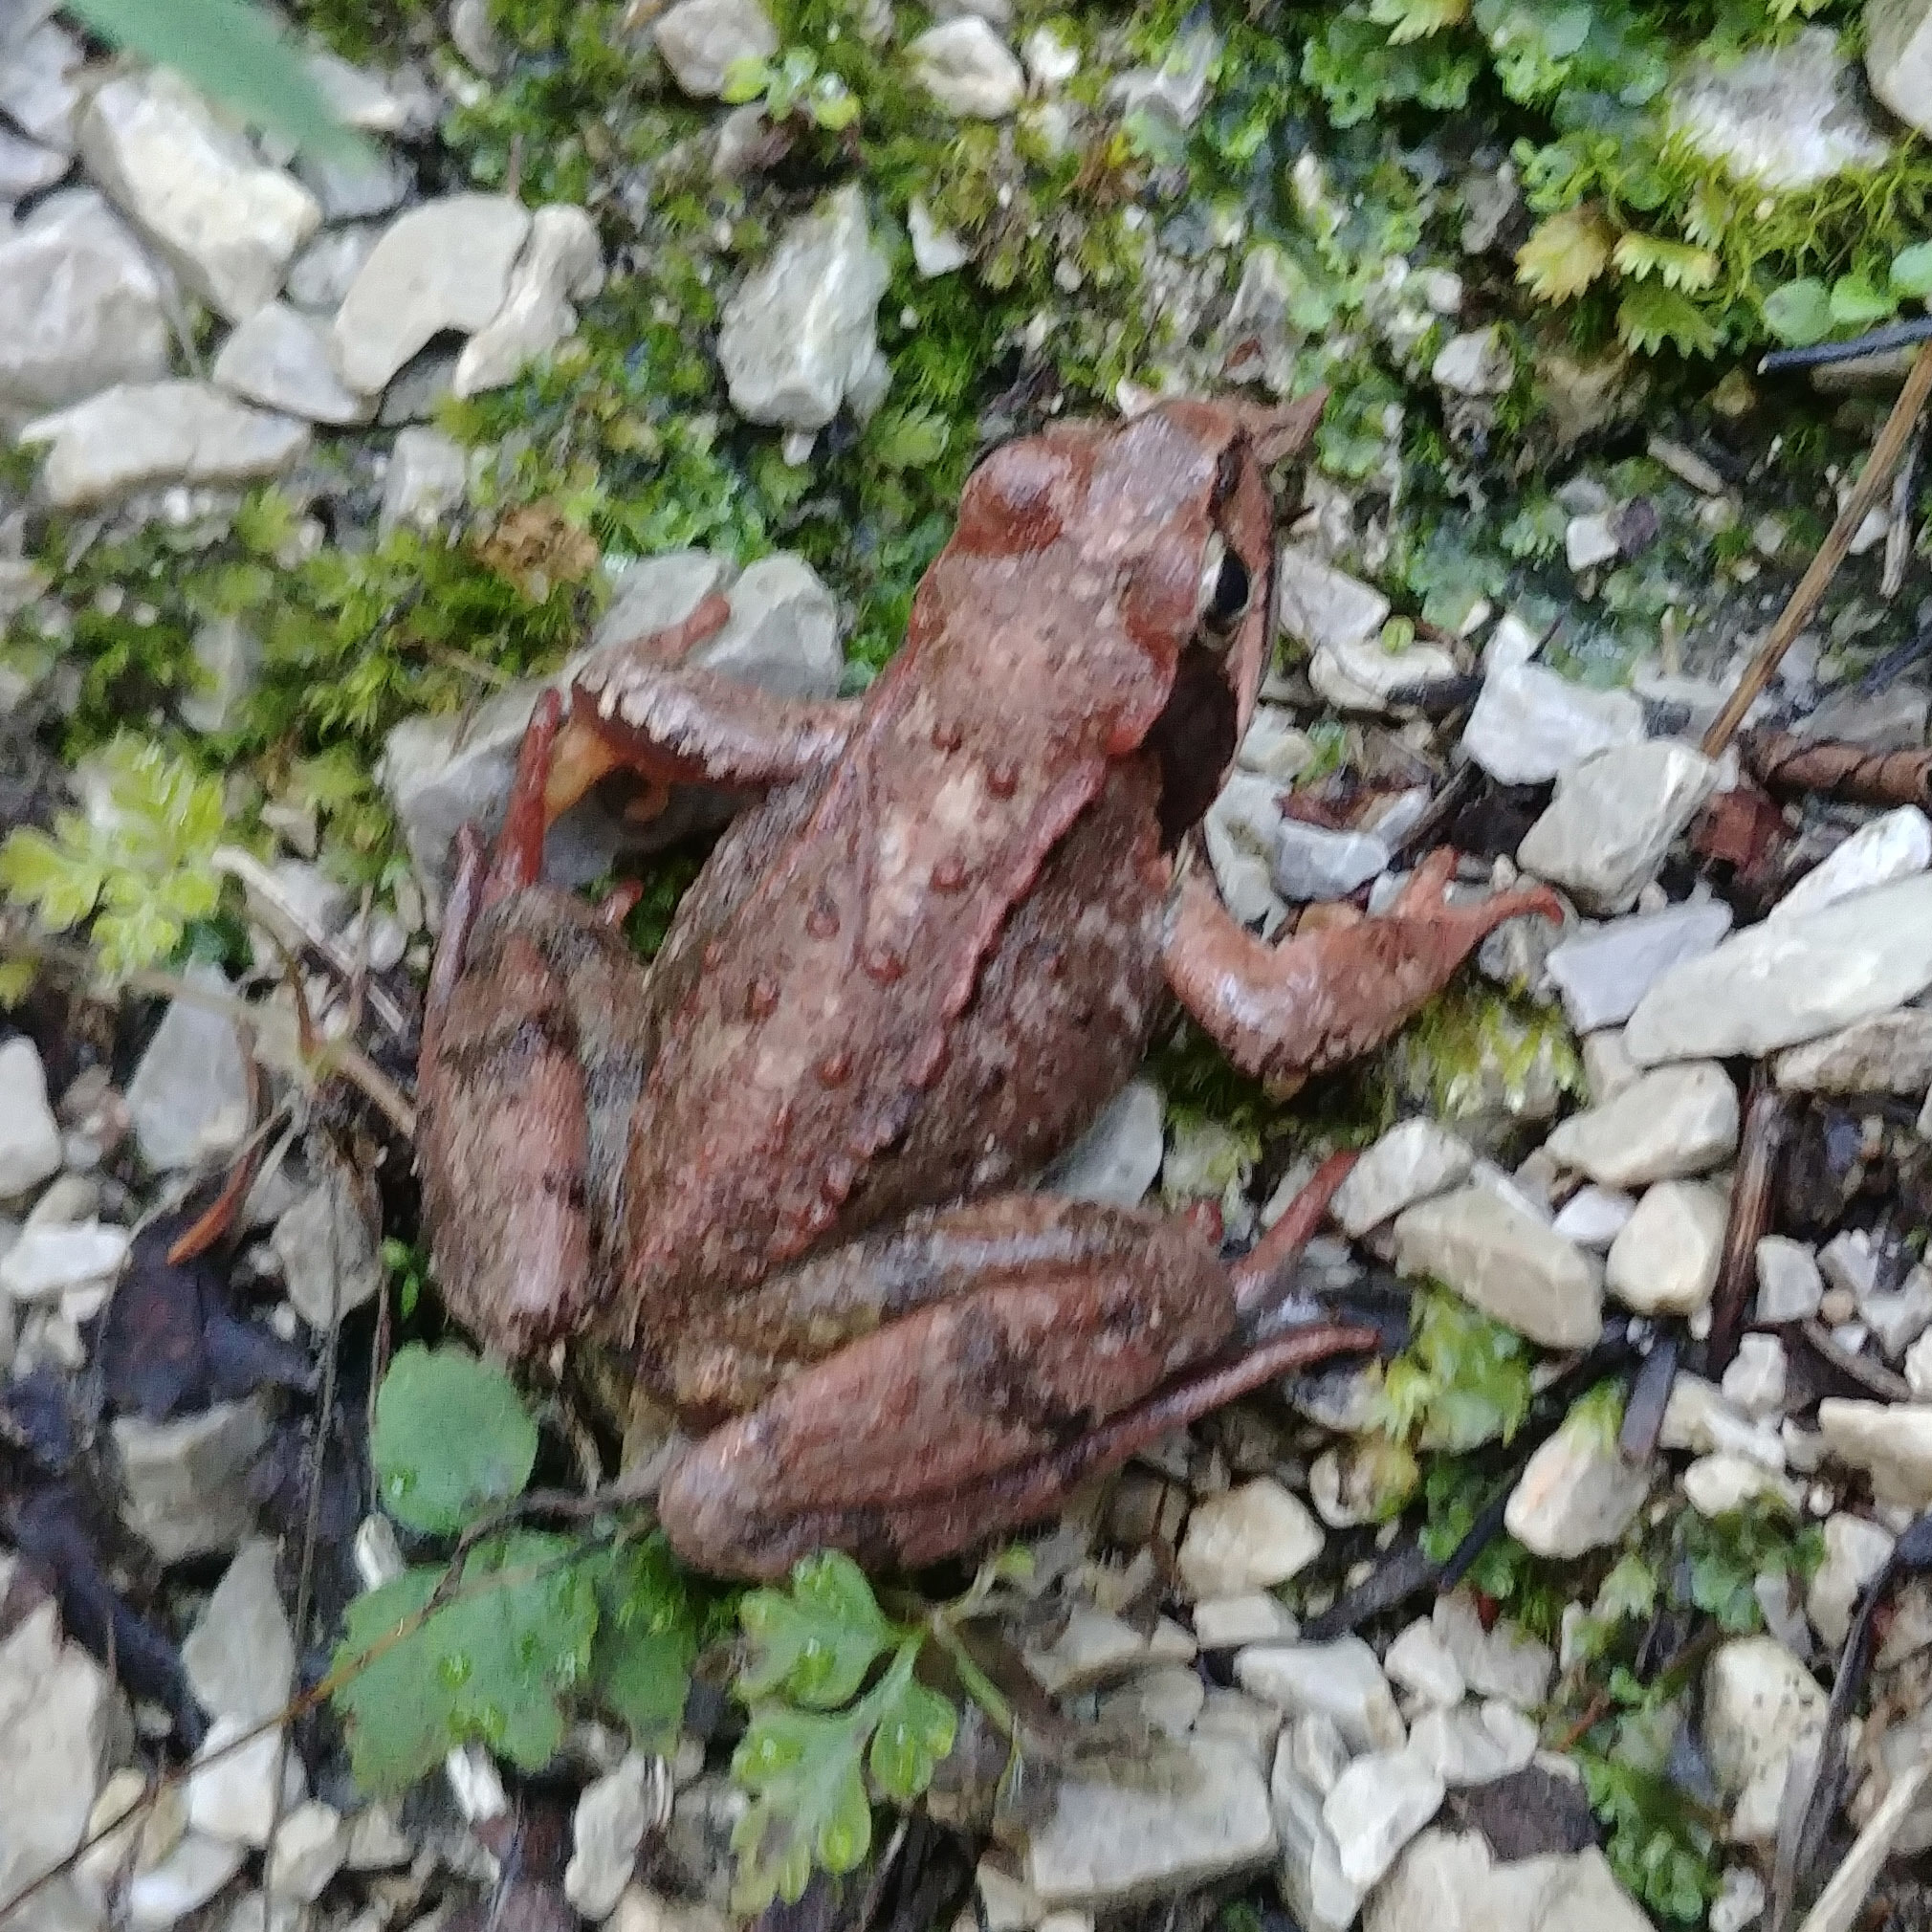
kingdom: Animalia
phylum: Chordata
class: Amphibia
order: Anura
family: Ranidae
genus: Rana
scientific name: Rana temporaria
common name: Common frog
